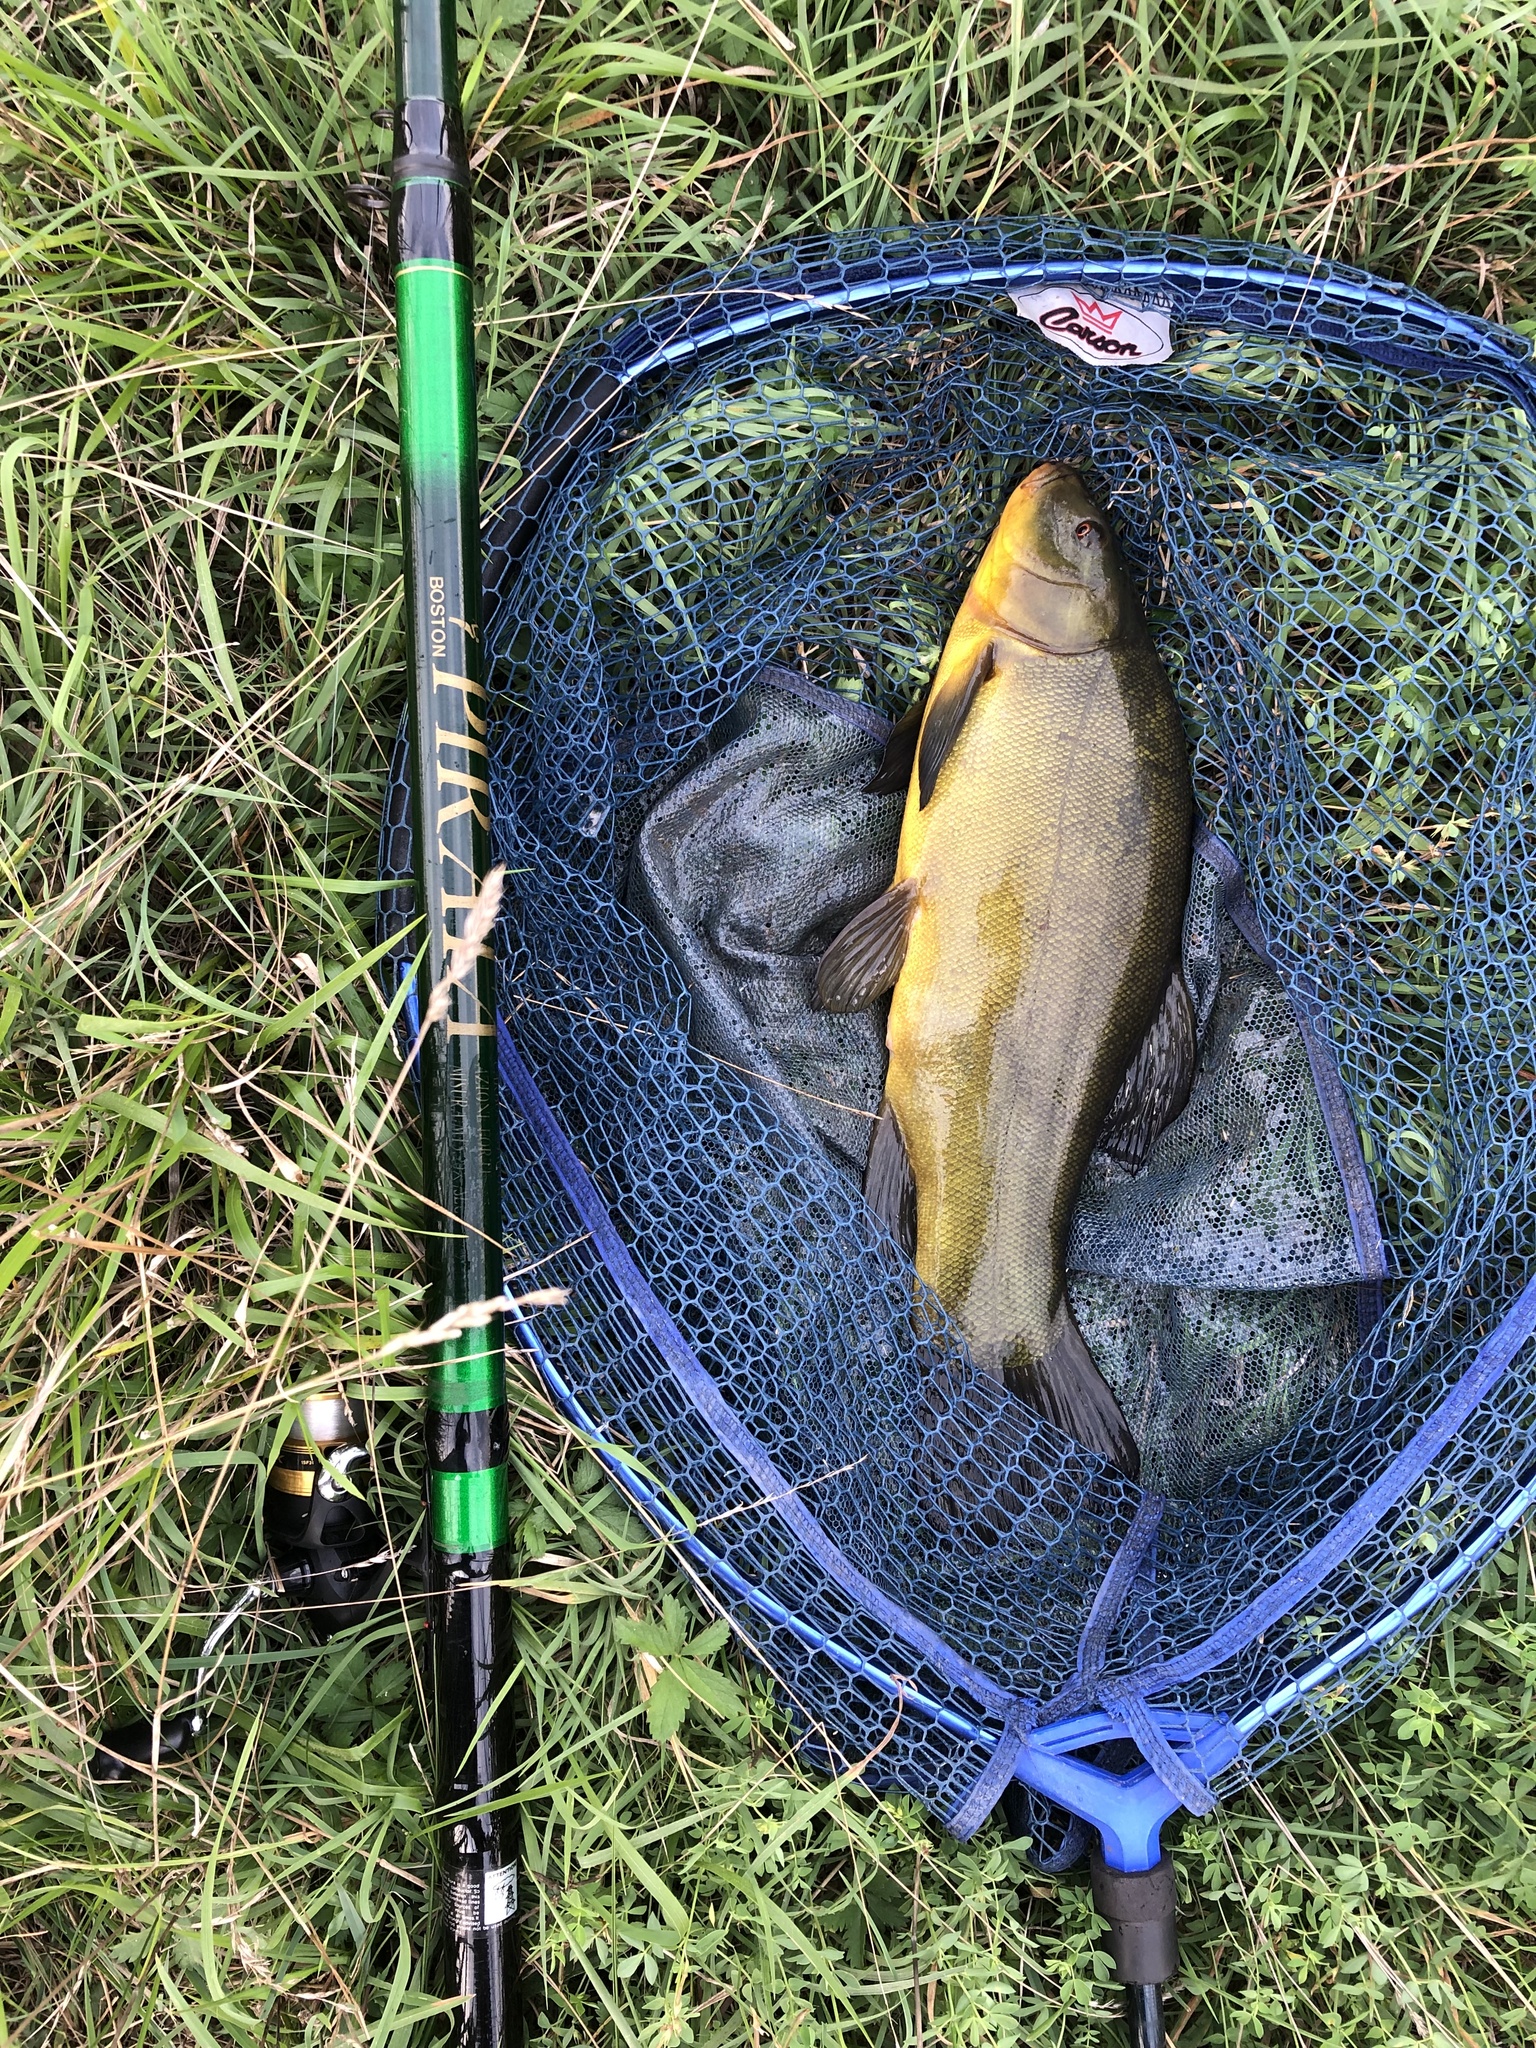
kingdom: Animalia
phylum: Chordata
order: Cypriniformes
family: Cyprinidae
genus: Tinca
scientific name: Tinca tinca
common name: Tench
